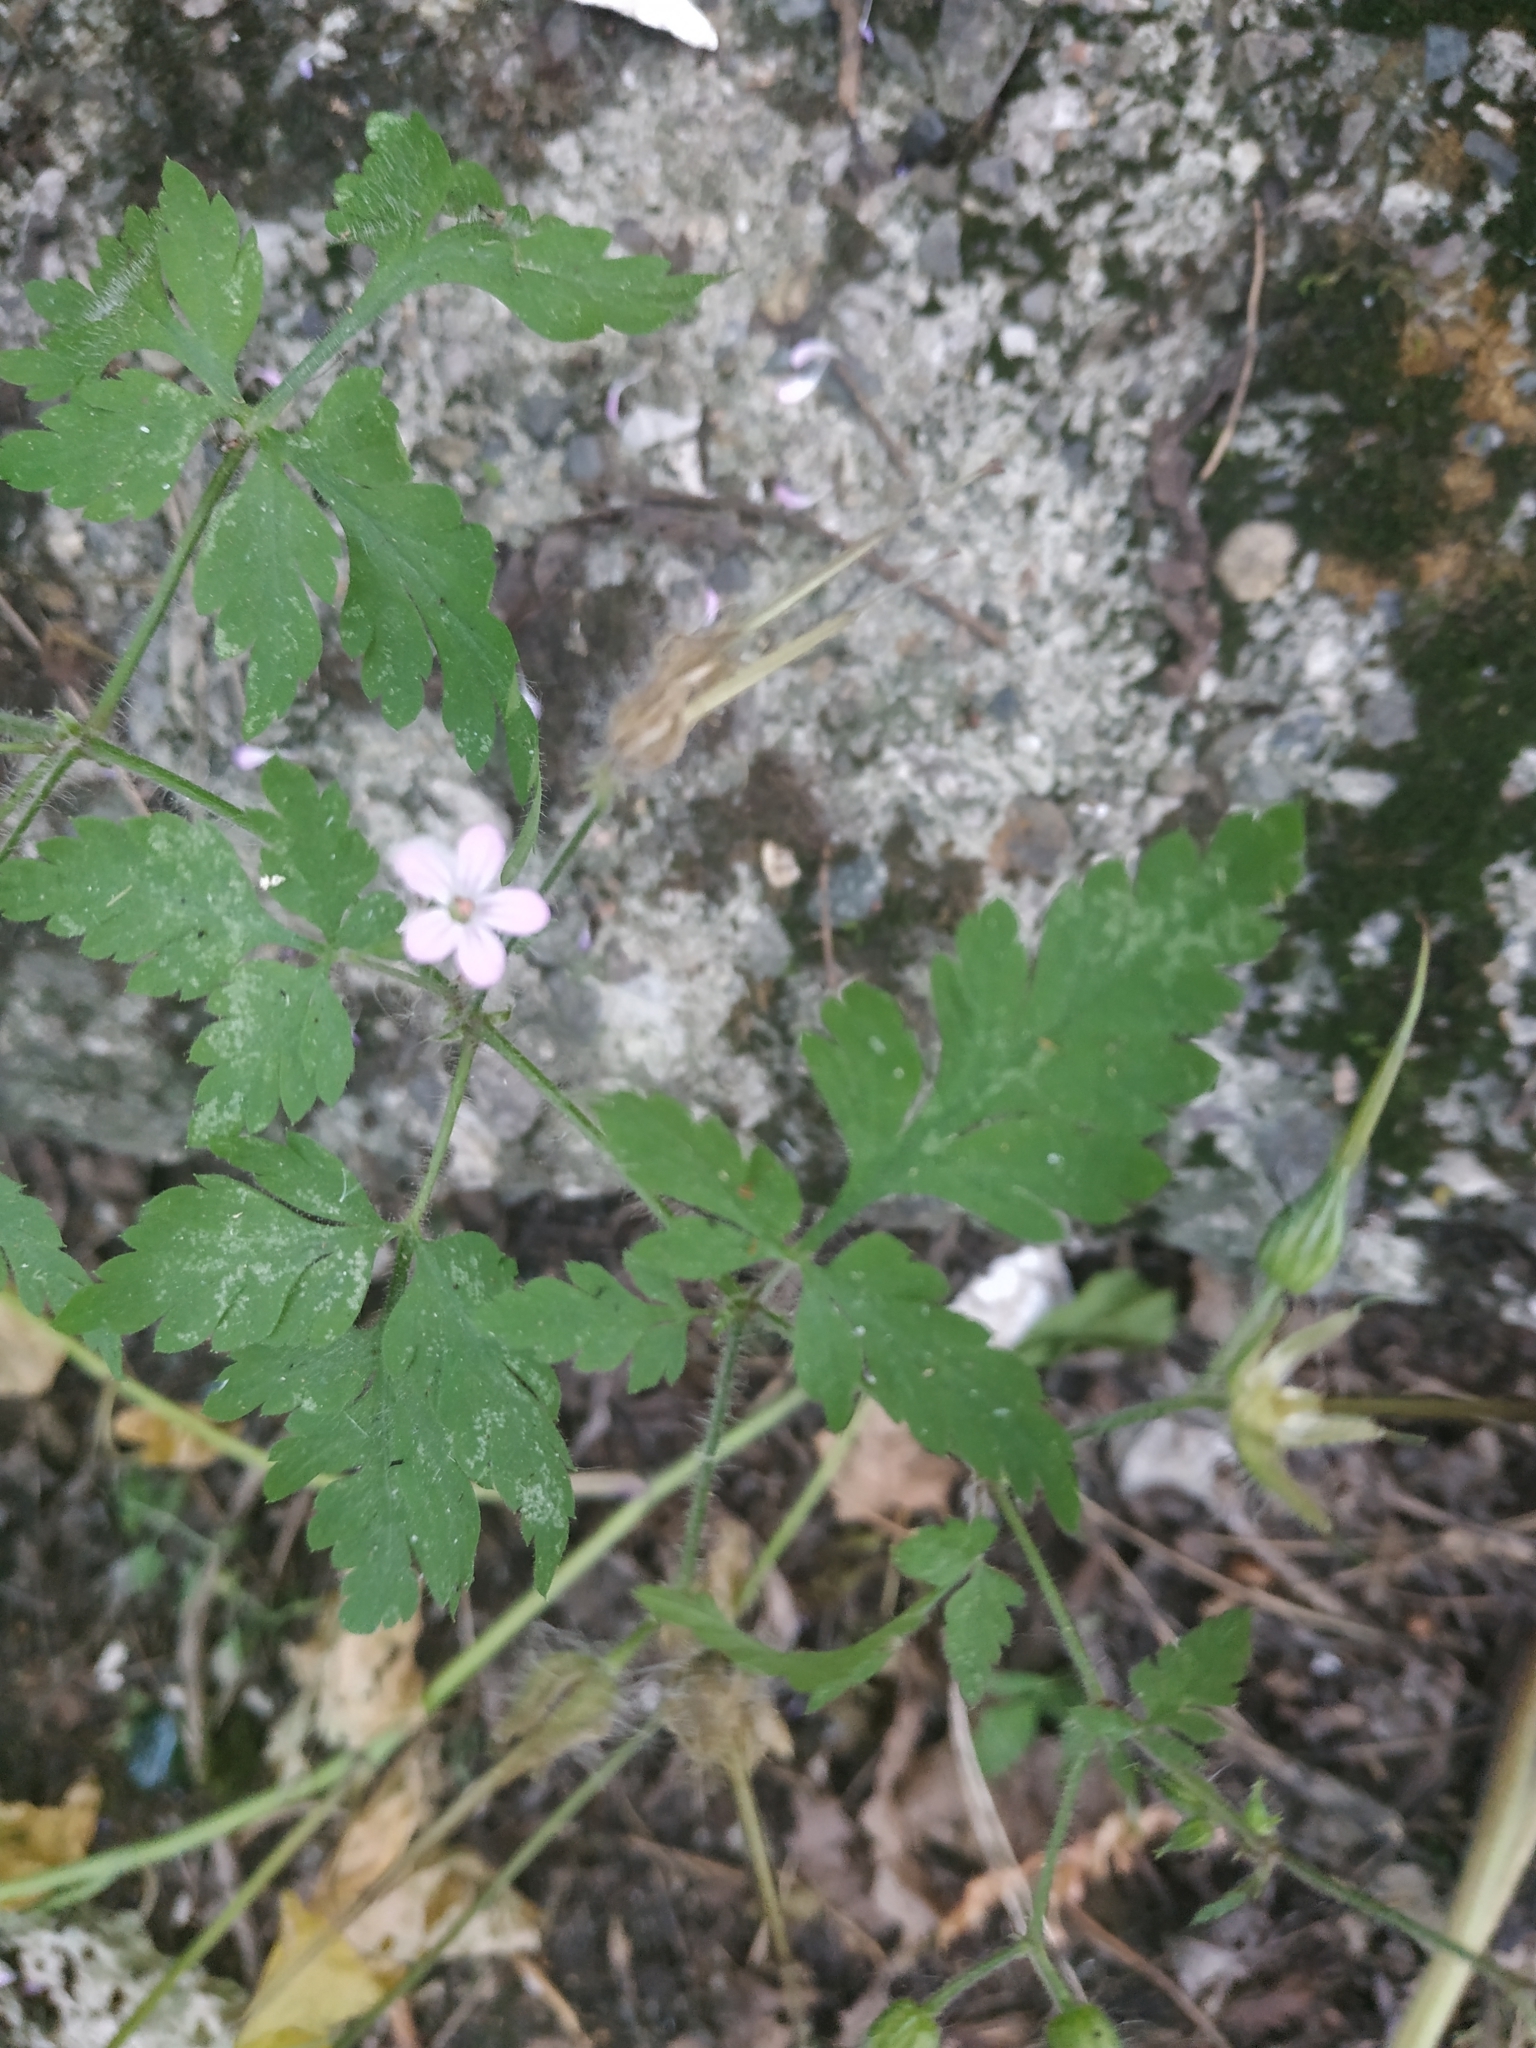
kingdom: Plantae
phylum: Tracheophyta
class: Magnoliopsida
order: Geraniales
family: Geraniaceae
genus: Geranium
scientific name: Geranium robertianum
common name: Herb-robert
